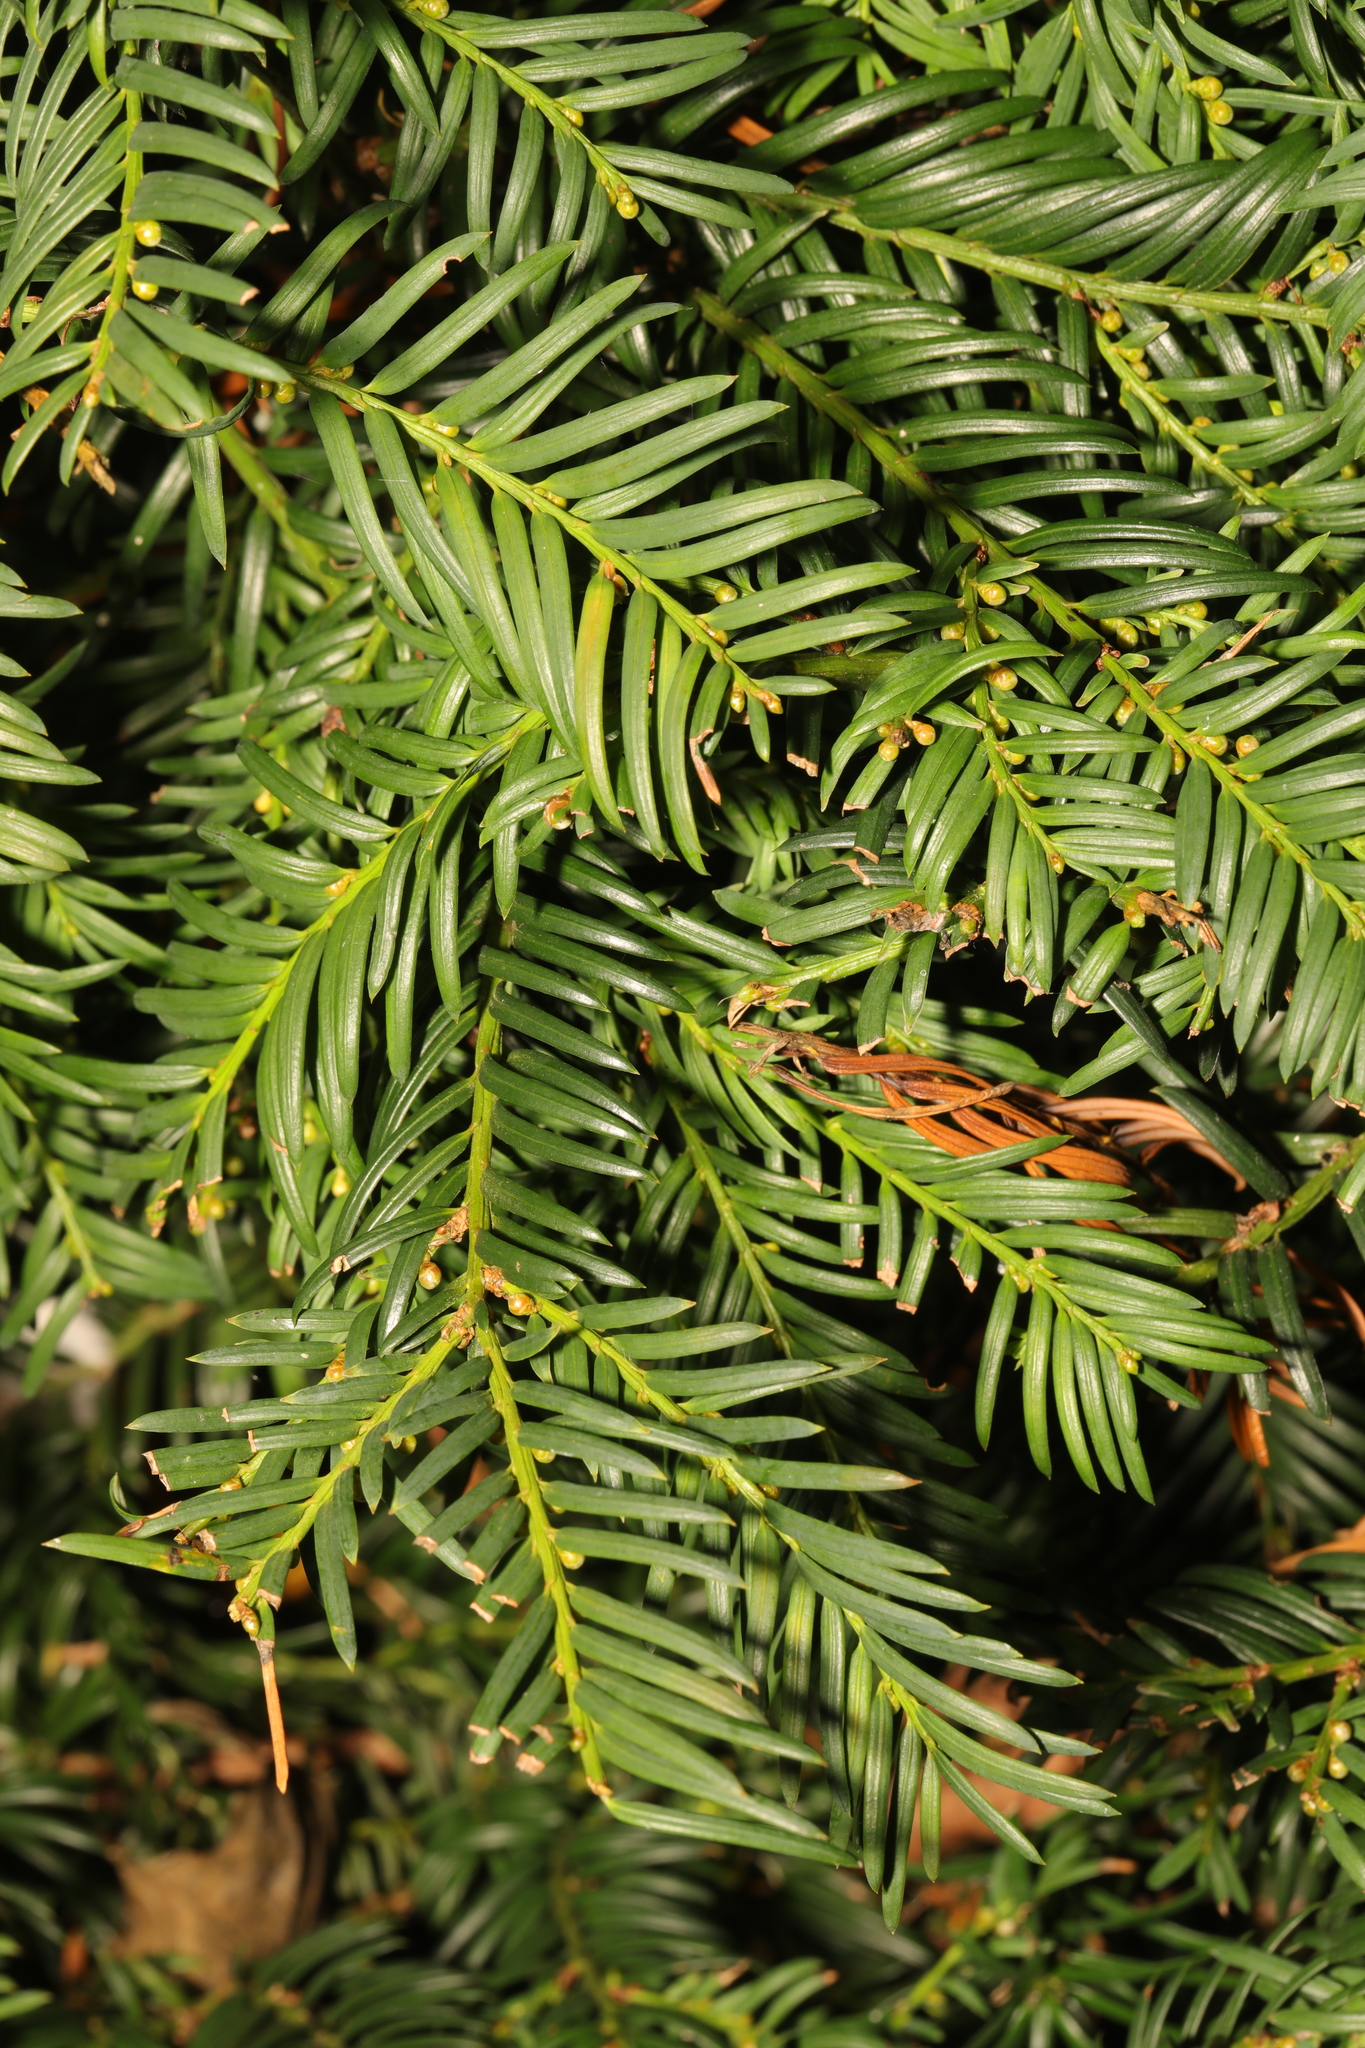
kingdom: Plantae
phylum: Tracheophyta
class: Pinopsida
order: Pinales
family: Taxaceae
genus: Taxus
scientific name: Taxus baccata
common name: Yew
